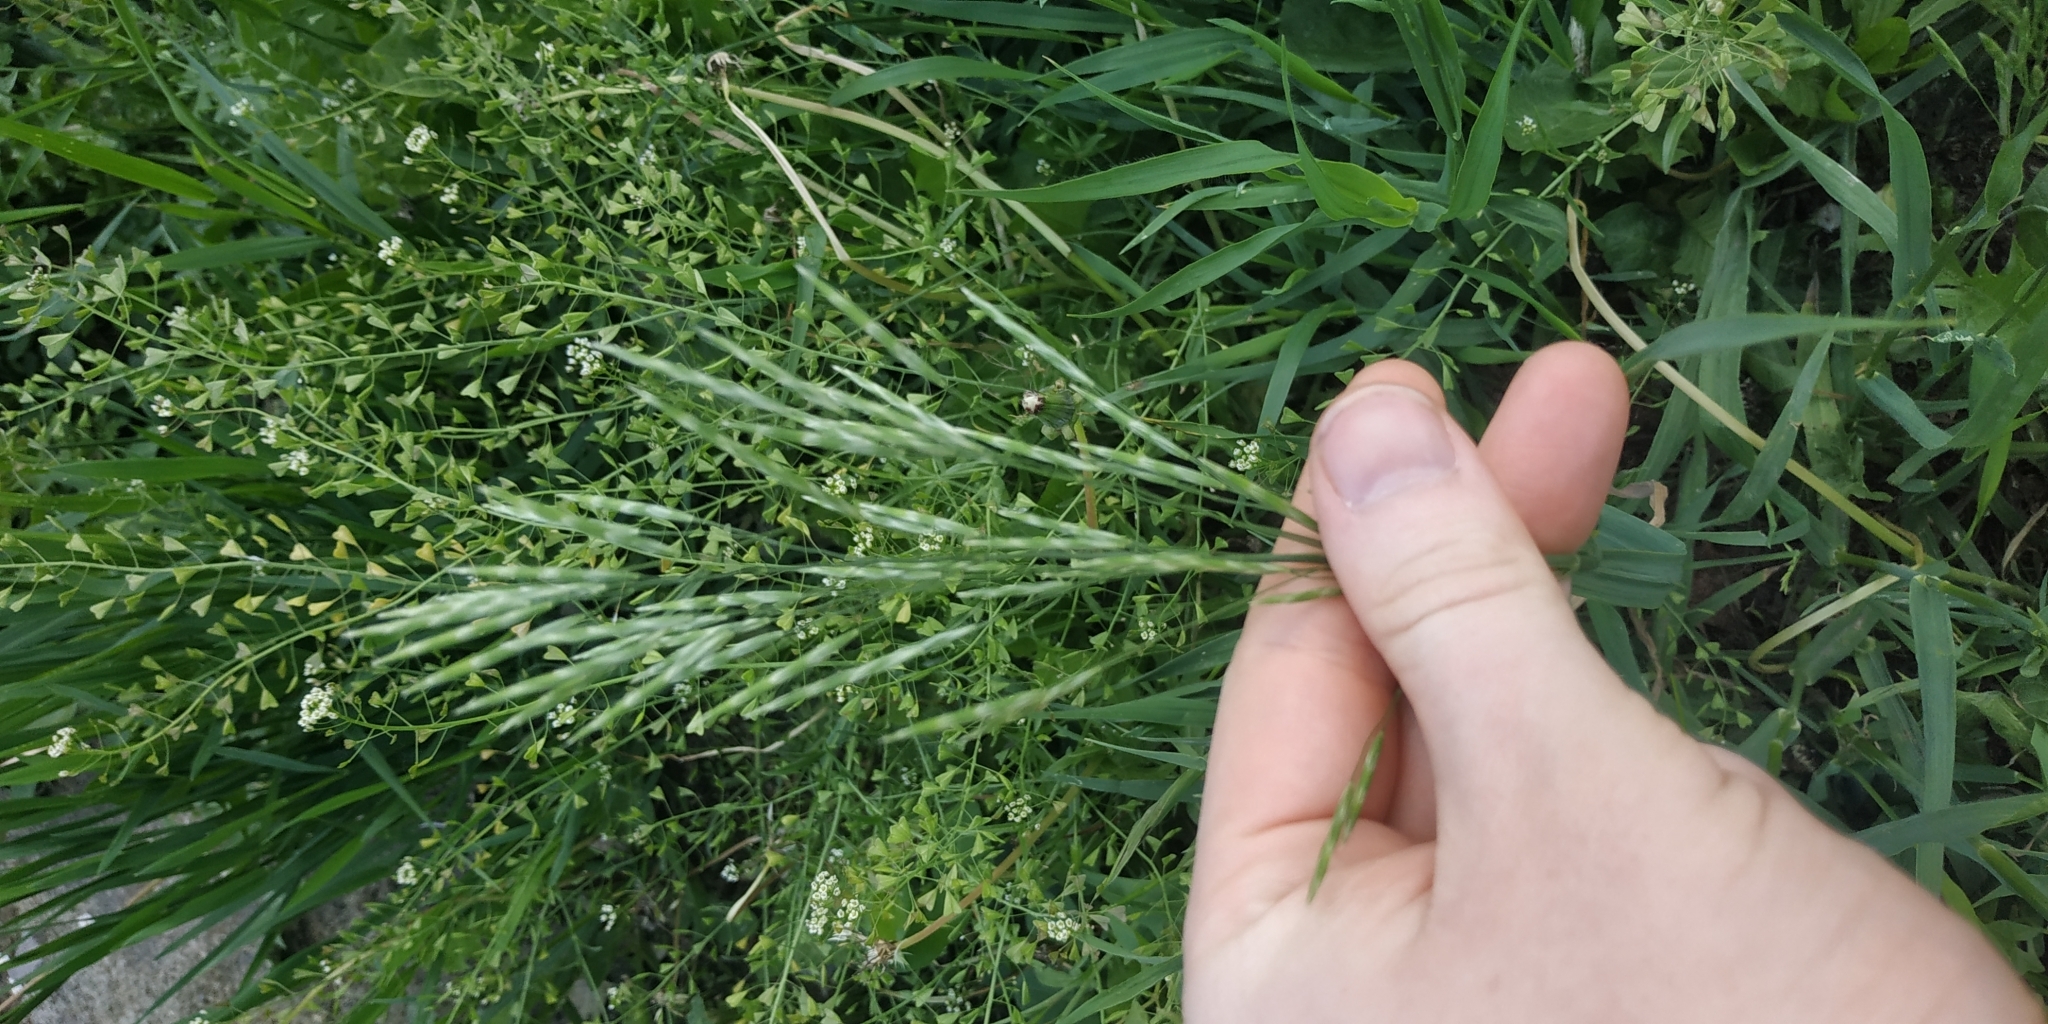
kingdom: Plantae
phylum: Tracheophyta
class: Liliopsida
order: Poales
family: Poaceae
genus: Bromus
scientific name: Bromus inermis
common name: Smooth brome
